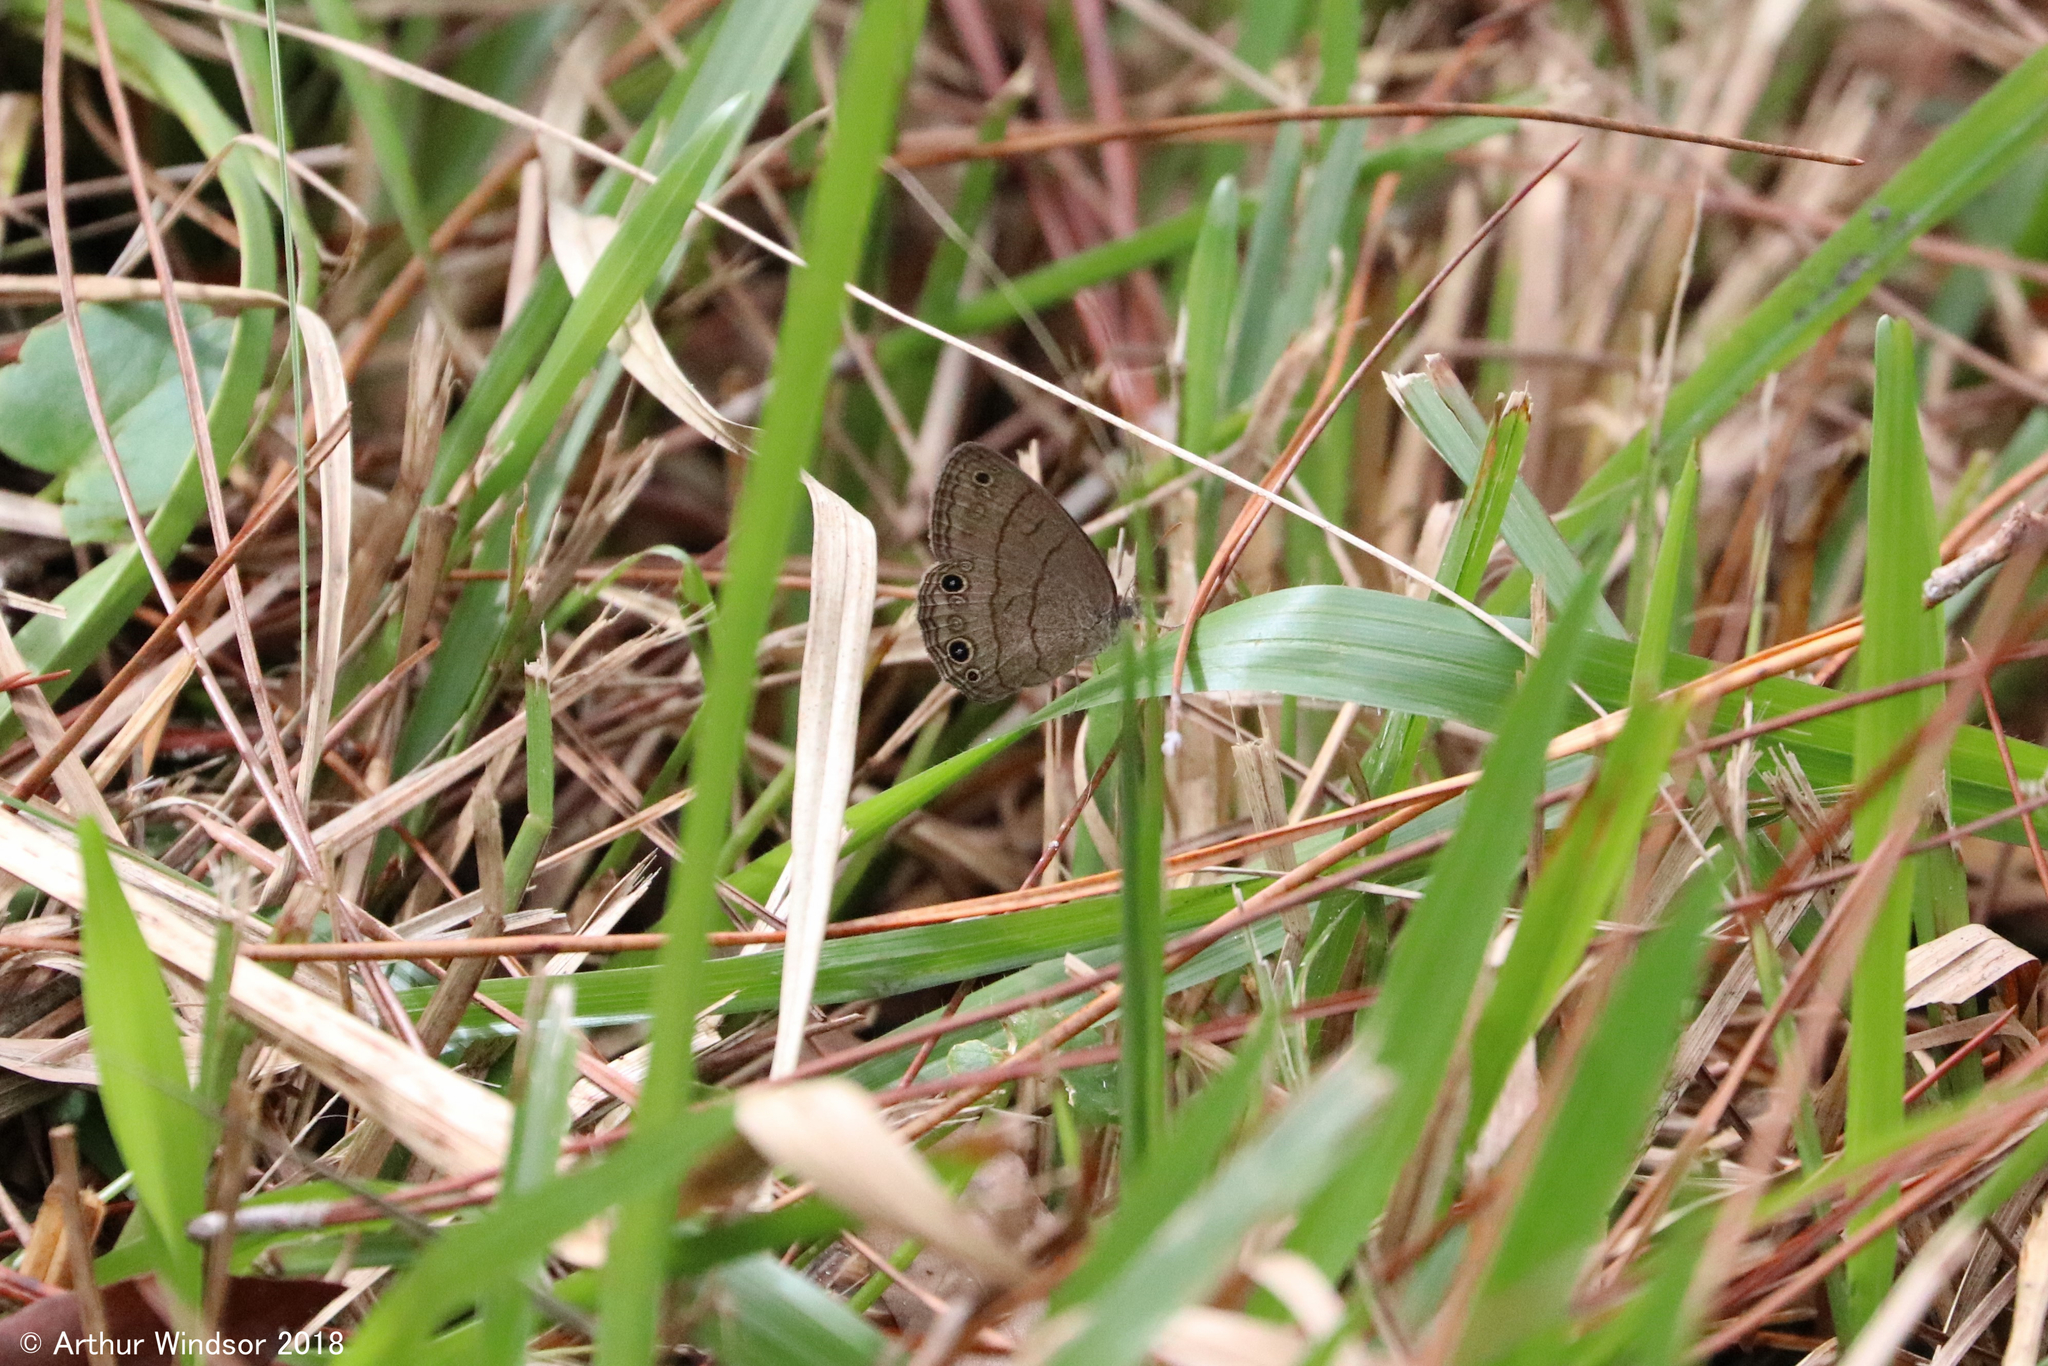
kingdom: Animalia
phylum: Arthropoda
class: Insecta
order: Lepidoptera
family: Nymphalidae
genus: Hermeuptychia
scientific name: Hermeuptychia hermes
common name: Hermes satyr
